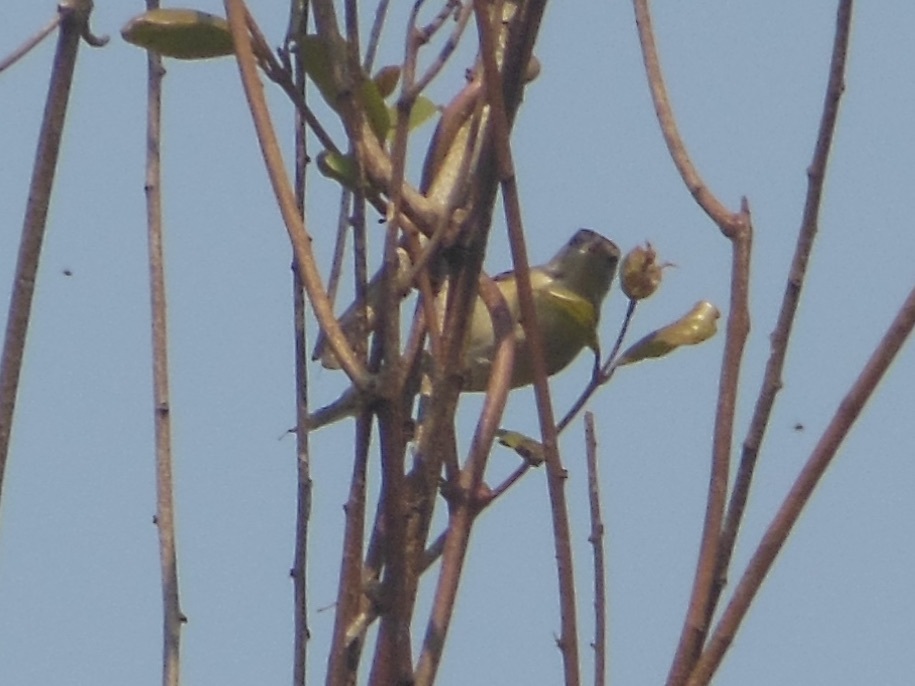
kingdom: Animalia
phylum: Chordata
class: Aves
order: Passeriformes
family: Cisticolidae
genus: Prinia
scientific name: Prinia inornata
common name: Plain prinia
